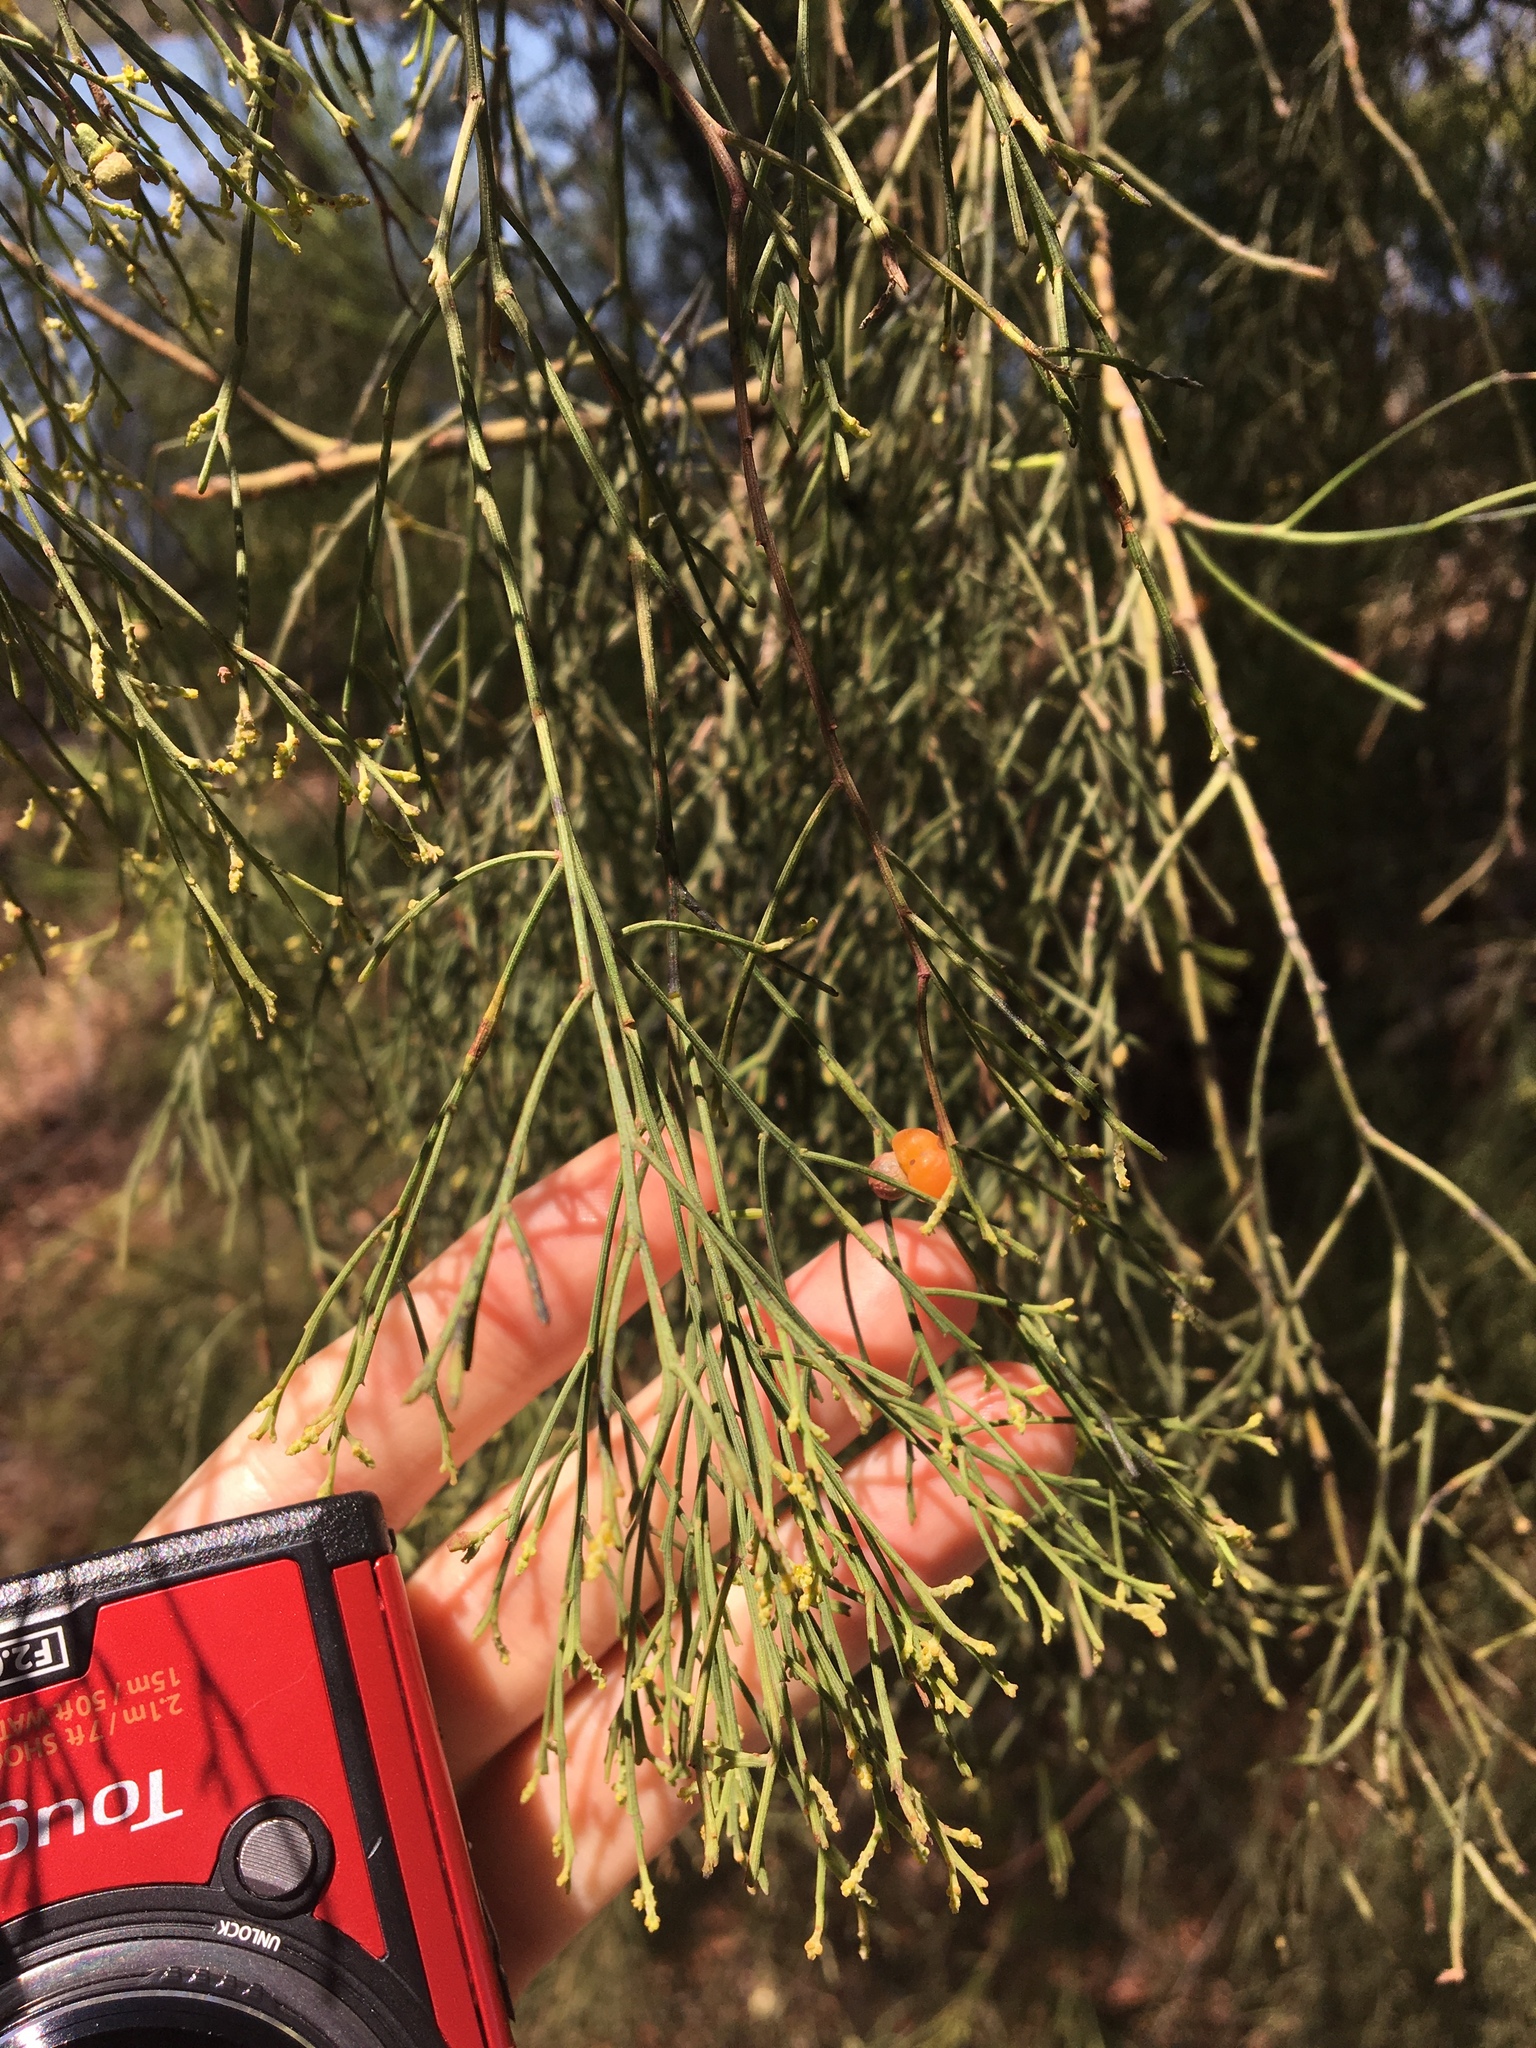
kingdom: Plantae
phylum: Tracheophyta
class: Magnoliopsida
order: Santalales
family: Santalaceae
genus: Exocarpos
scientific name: Exocarpos cupressiformis
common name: Cherry ballart
